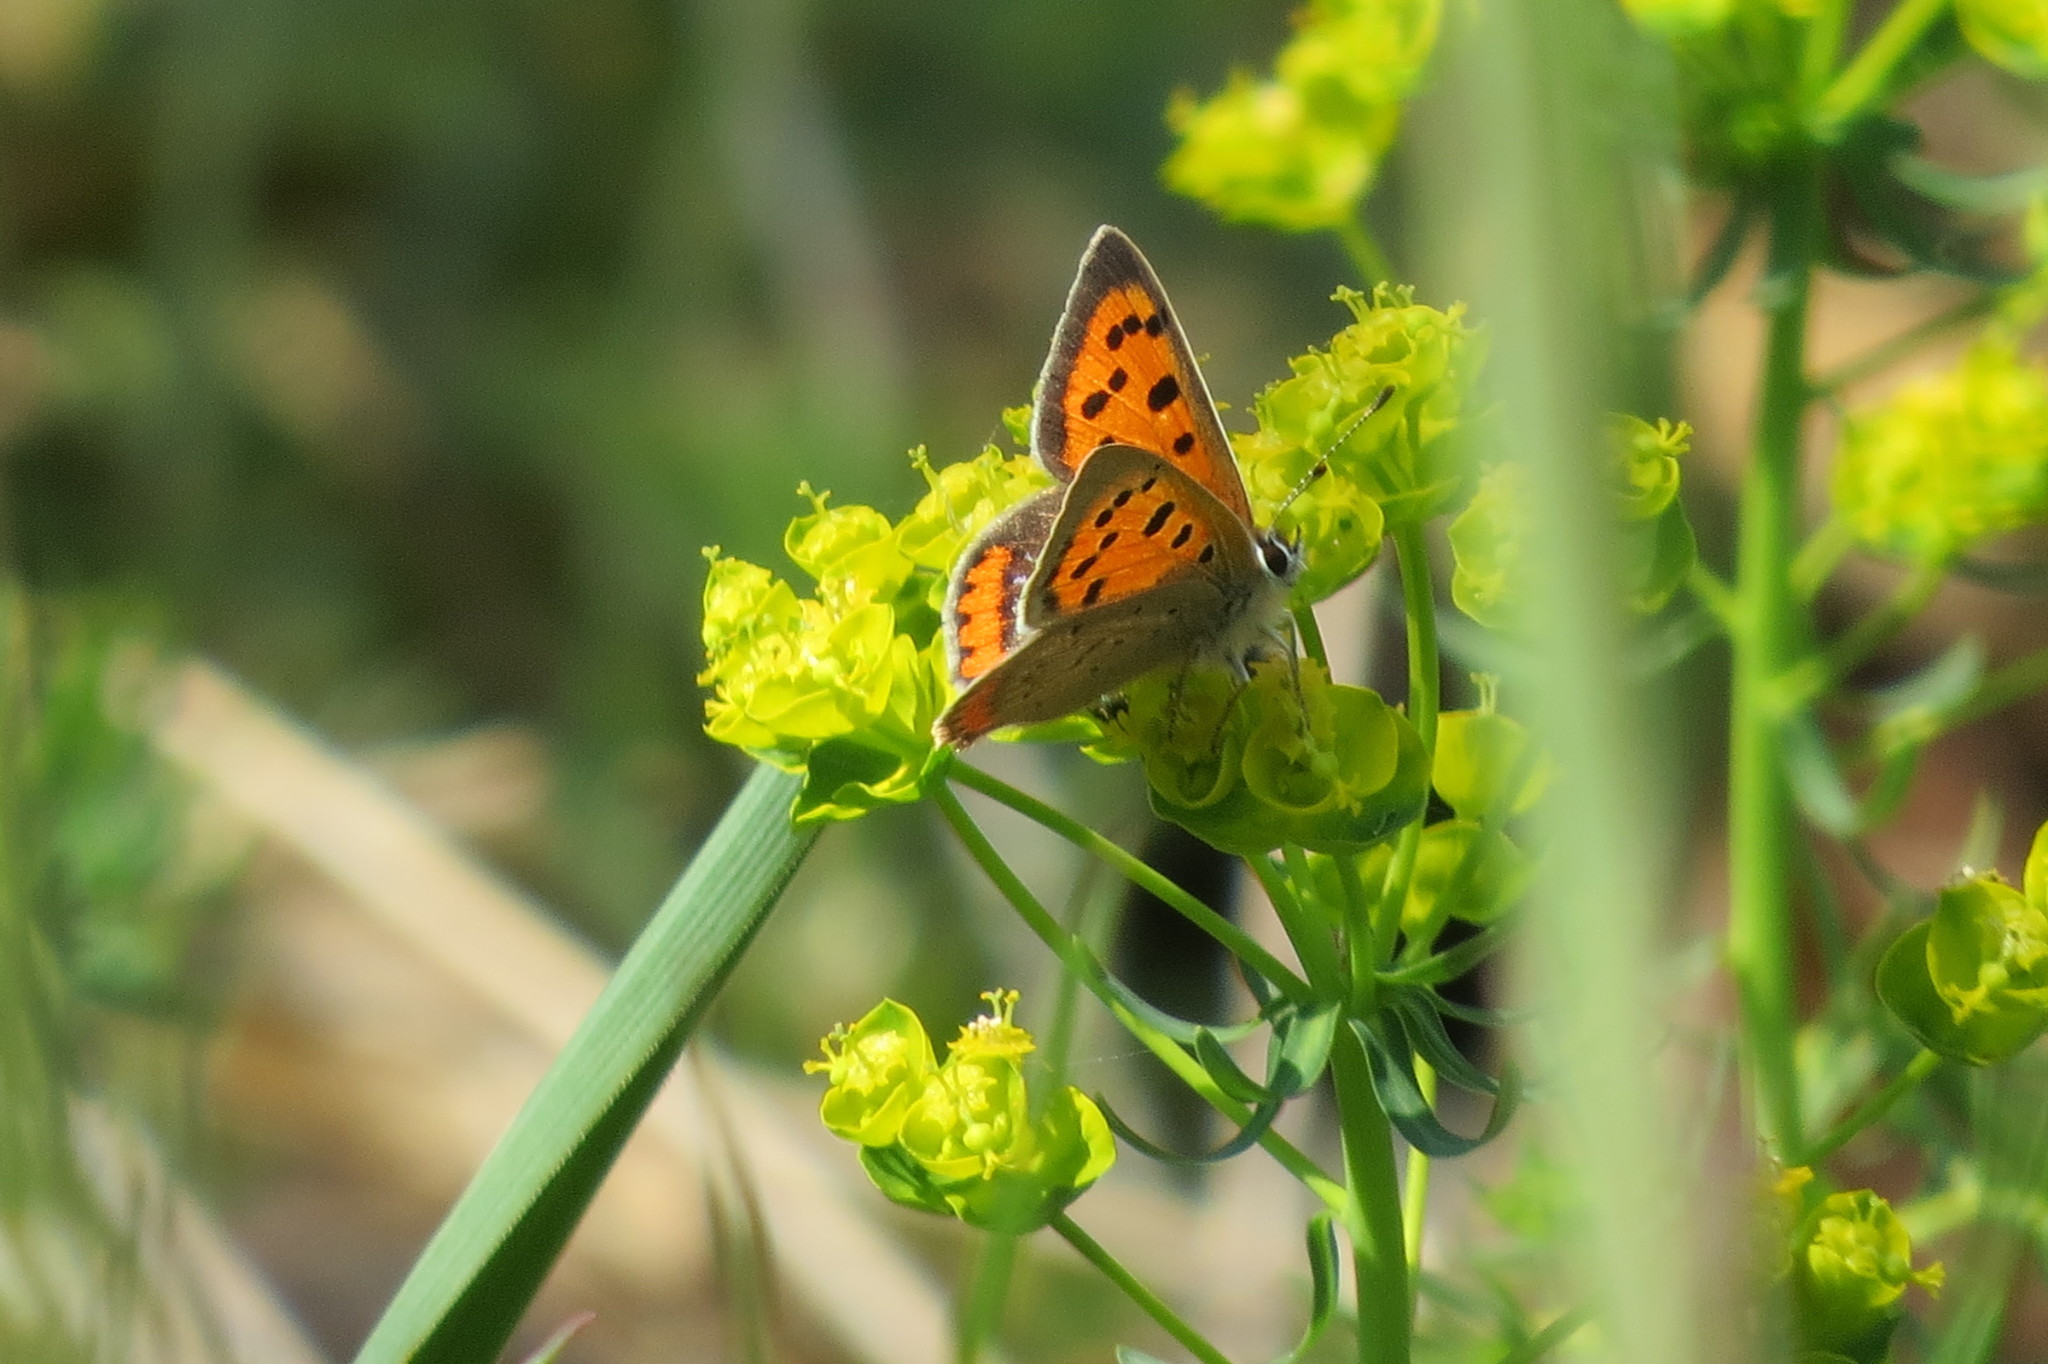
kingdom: Animalia
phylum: Arthropoda
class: Insecta
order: Lepidoptera
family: Lycaenidae
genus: Lycaena
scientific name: Lycaena phlaeas
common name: Small copper
